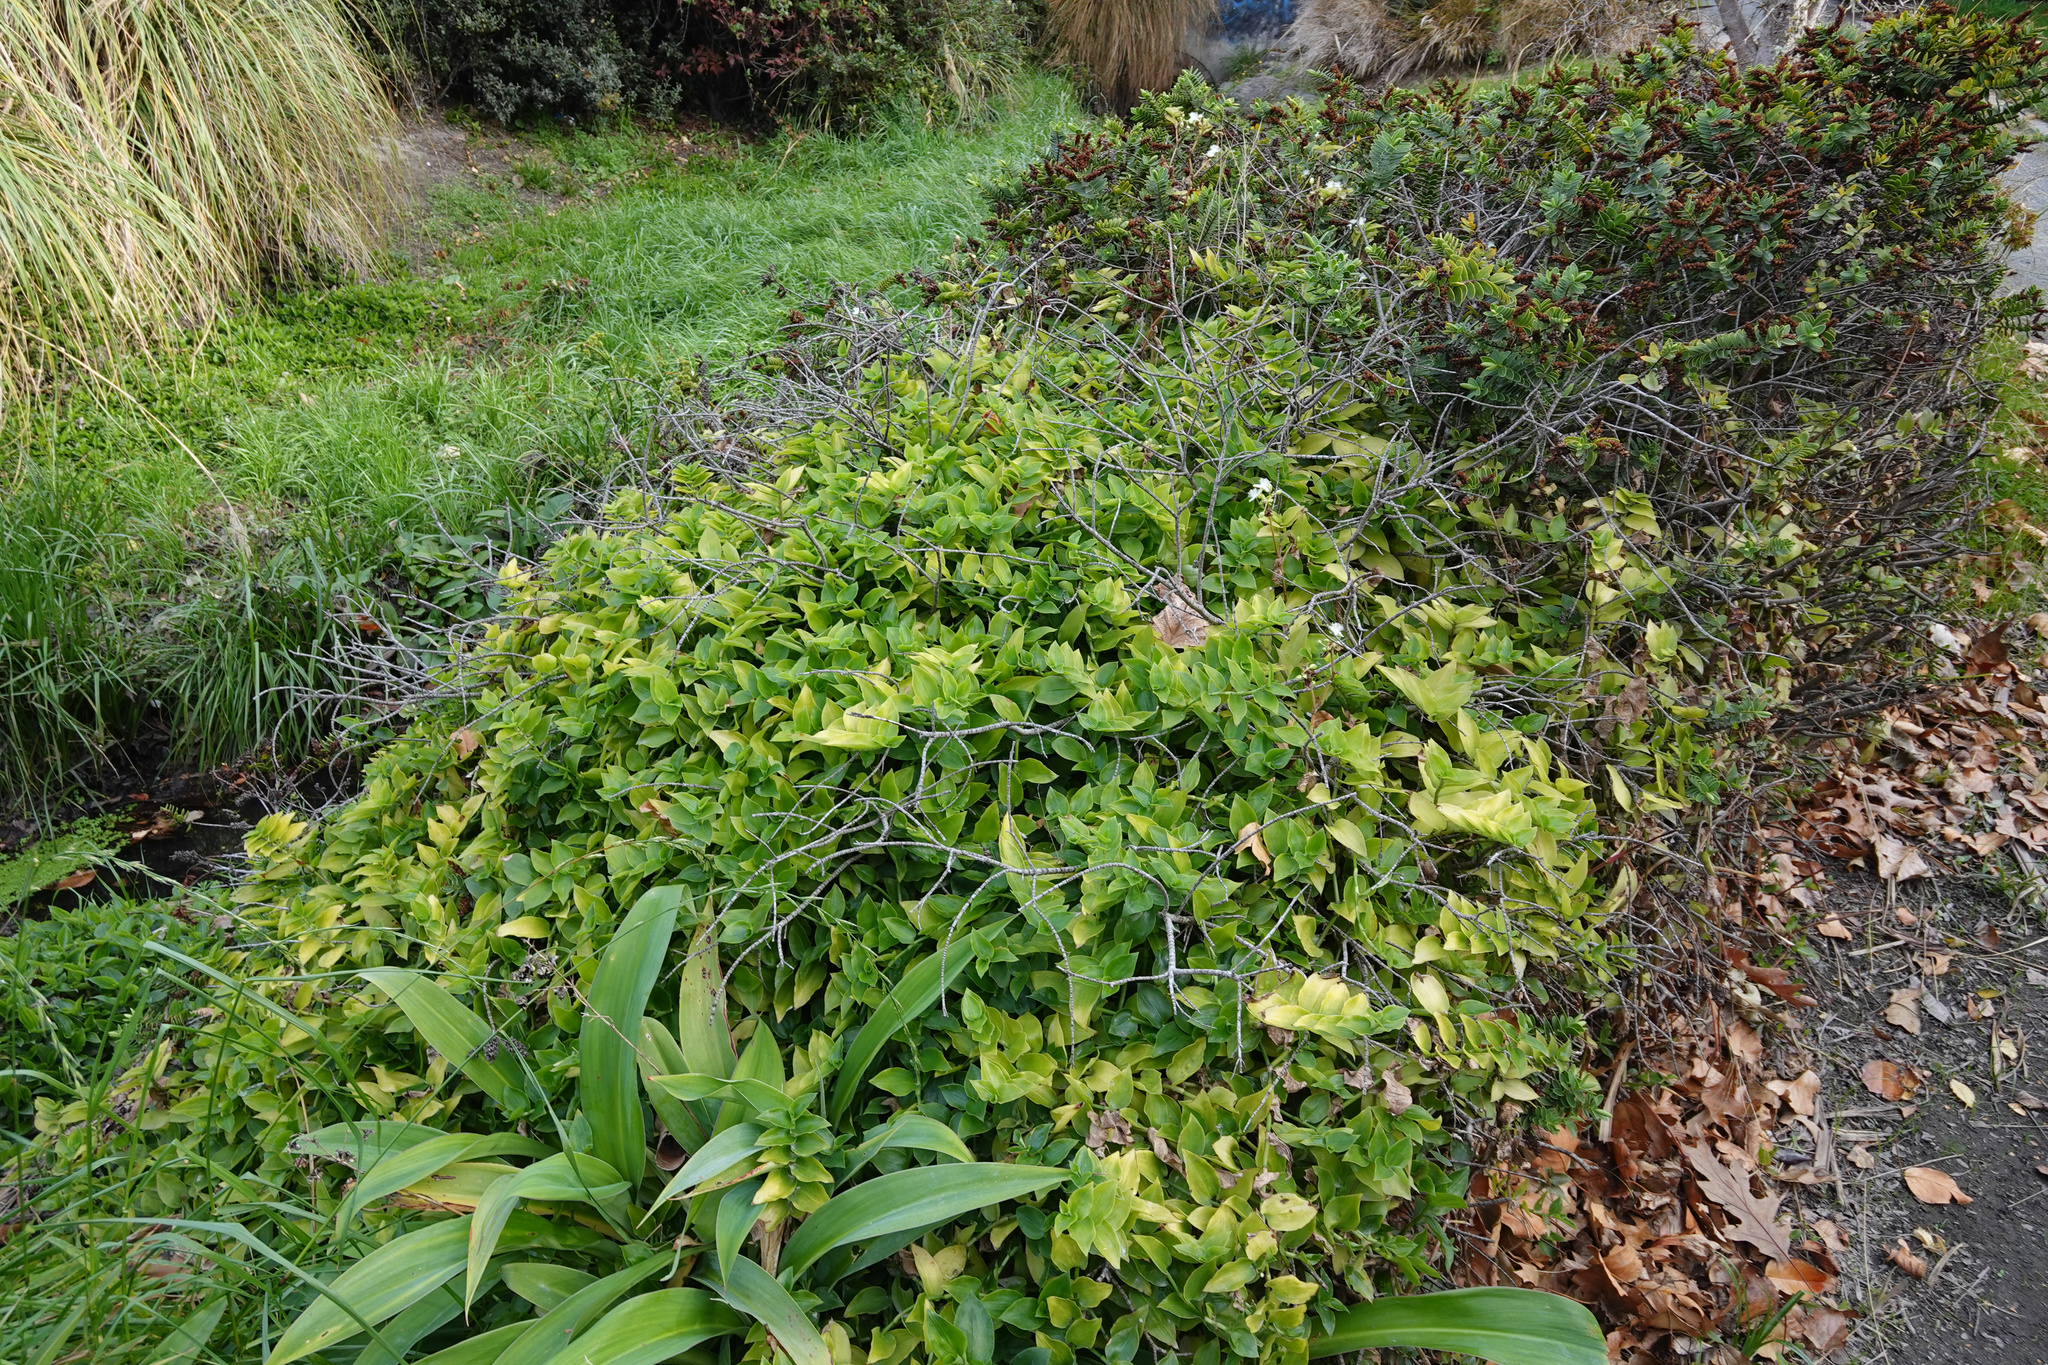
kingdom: Plantae
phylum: Tracheophyta
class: Liliopsida
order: Commelinales
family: Commelinaceae
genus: Tradescantia
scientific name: Tradescantia fluminensis
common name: Wandering-jew
